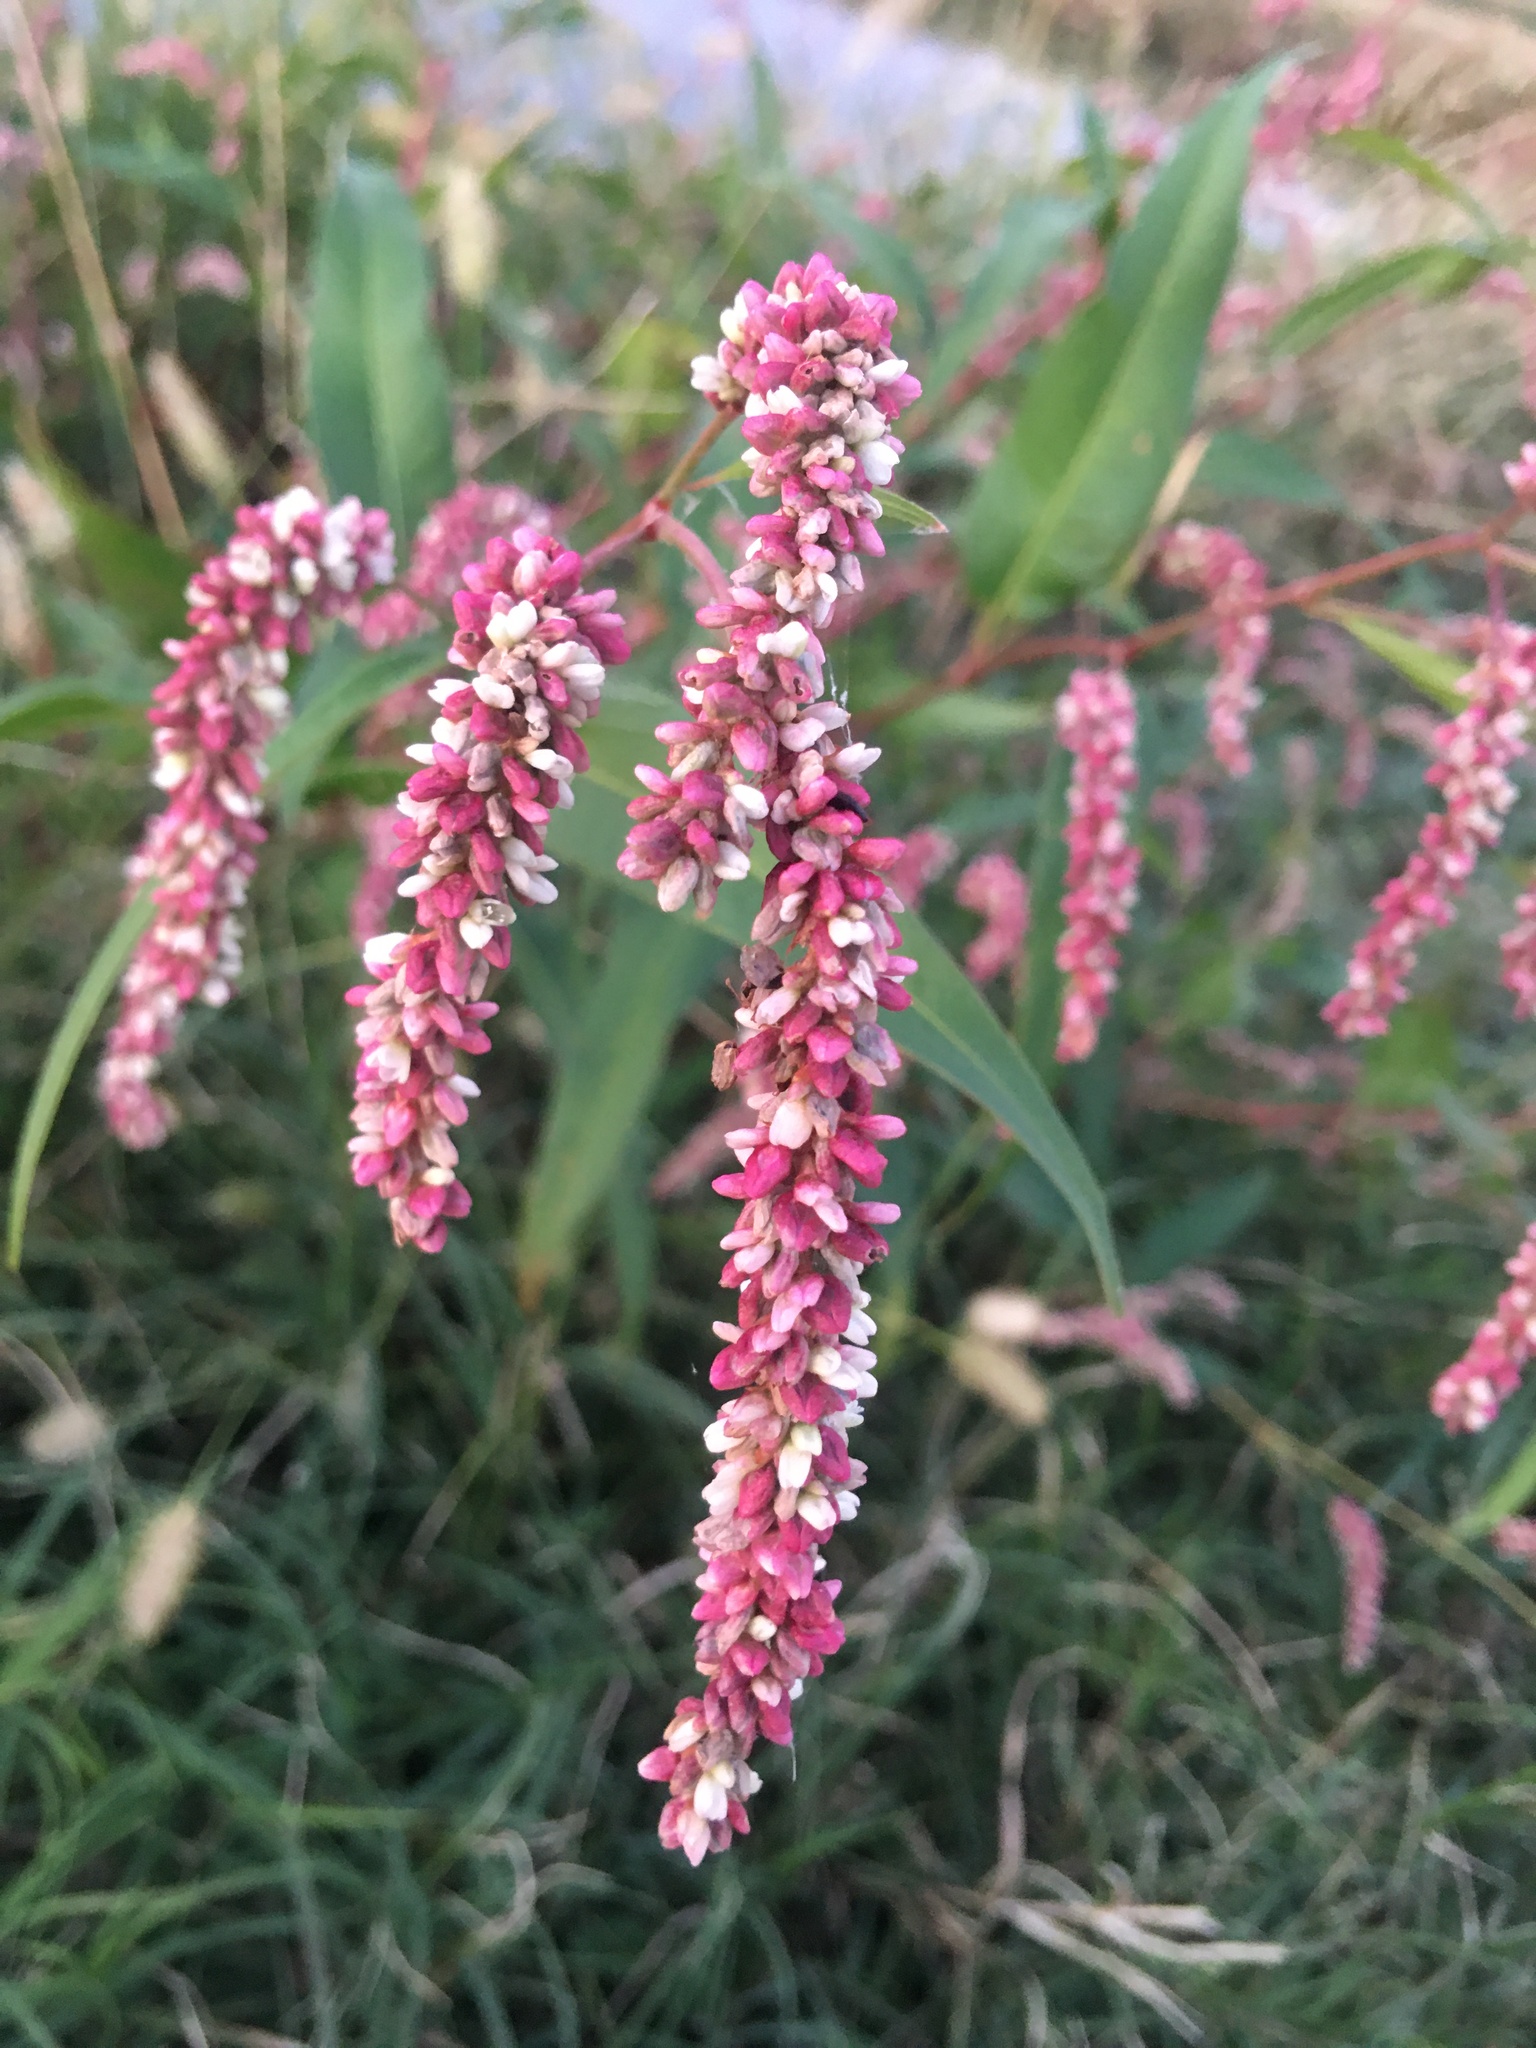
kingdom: Plantae
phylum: Tracheophyta
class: Magnoliopsida
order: Caryophyllales
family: Polygonaceae
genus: Persicaria
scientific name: Persicaria lapathifolia
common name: Curlytop knotweed
